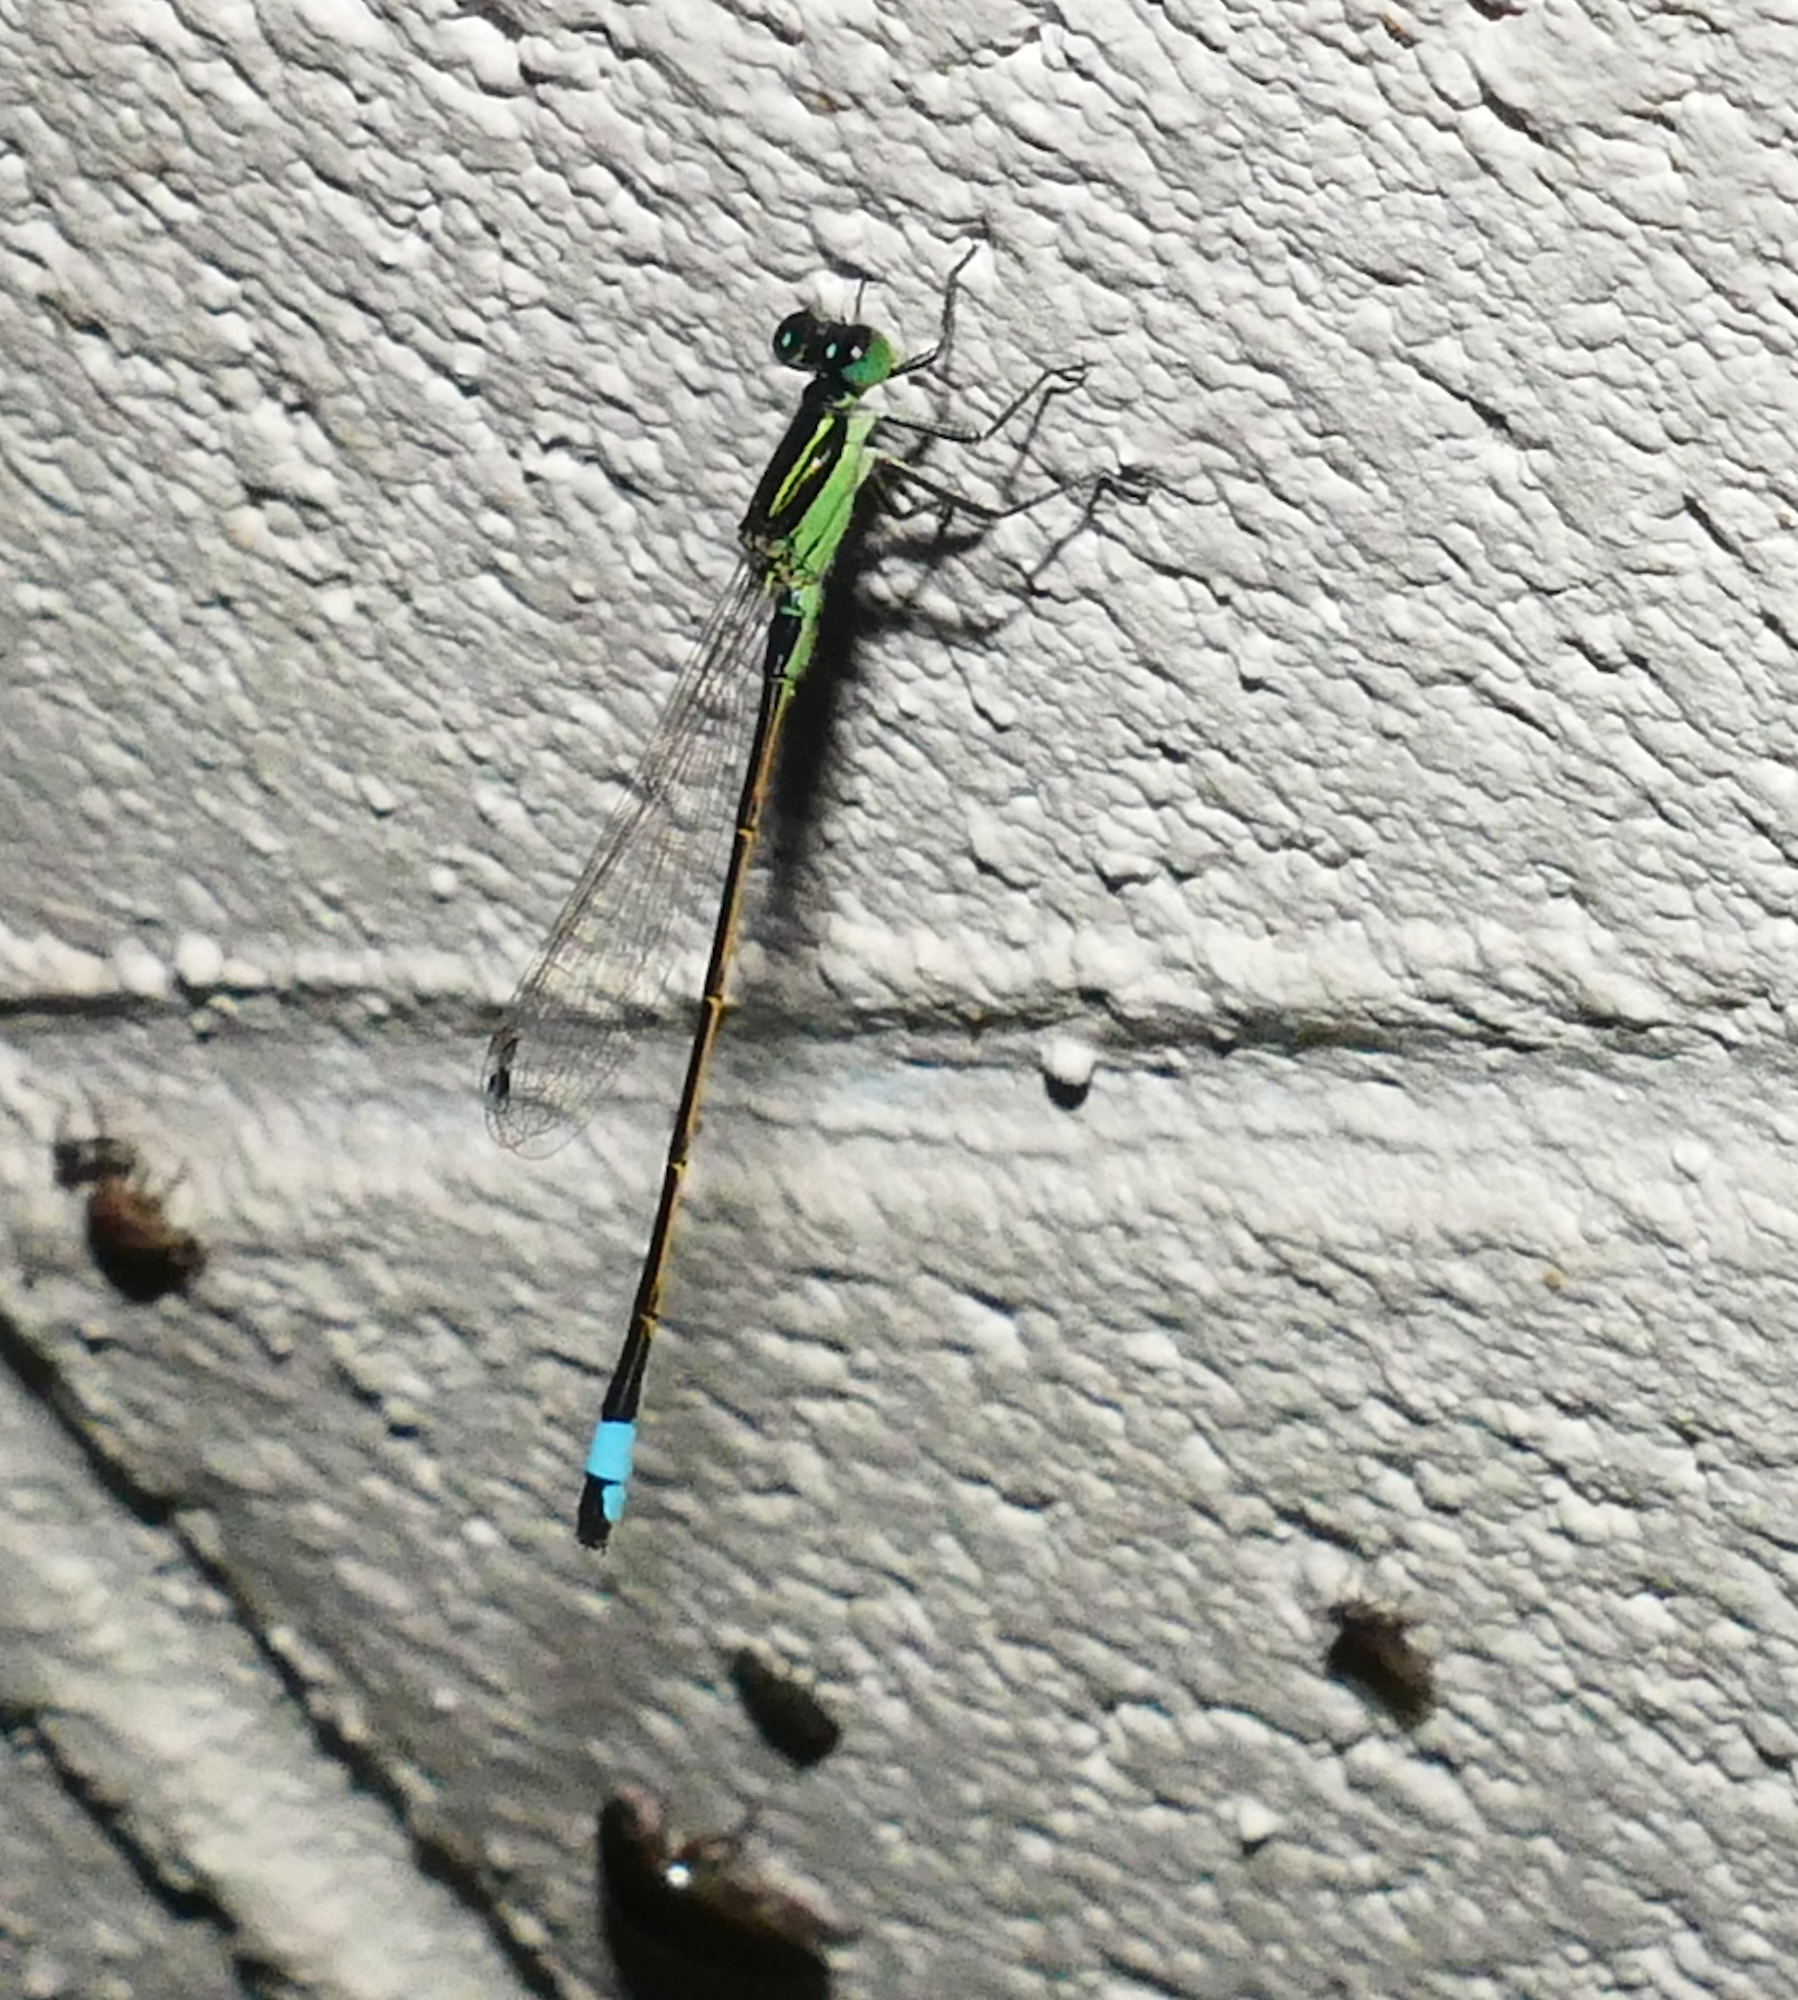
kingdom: Animalia
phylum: Arthropoda
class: Insecta
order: Odonata
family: Coenagrionidae
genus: Ischnura
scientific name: Ischnura ramburii
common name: Rambur's forktail
